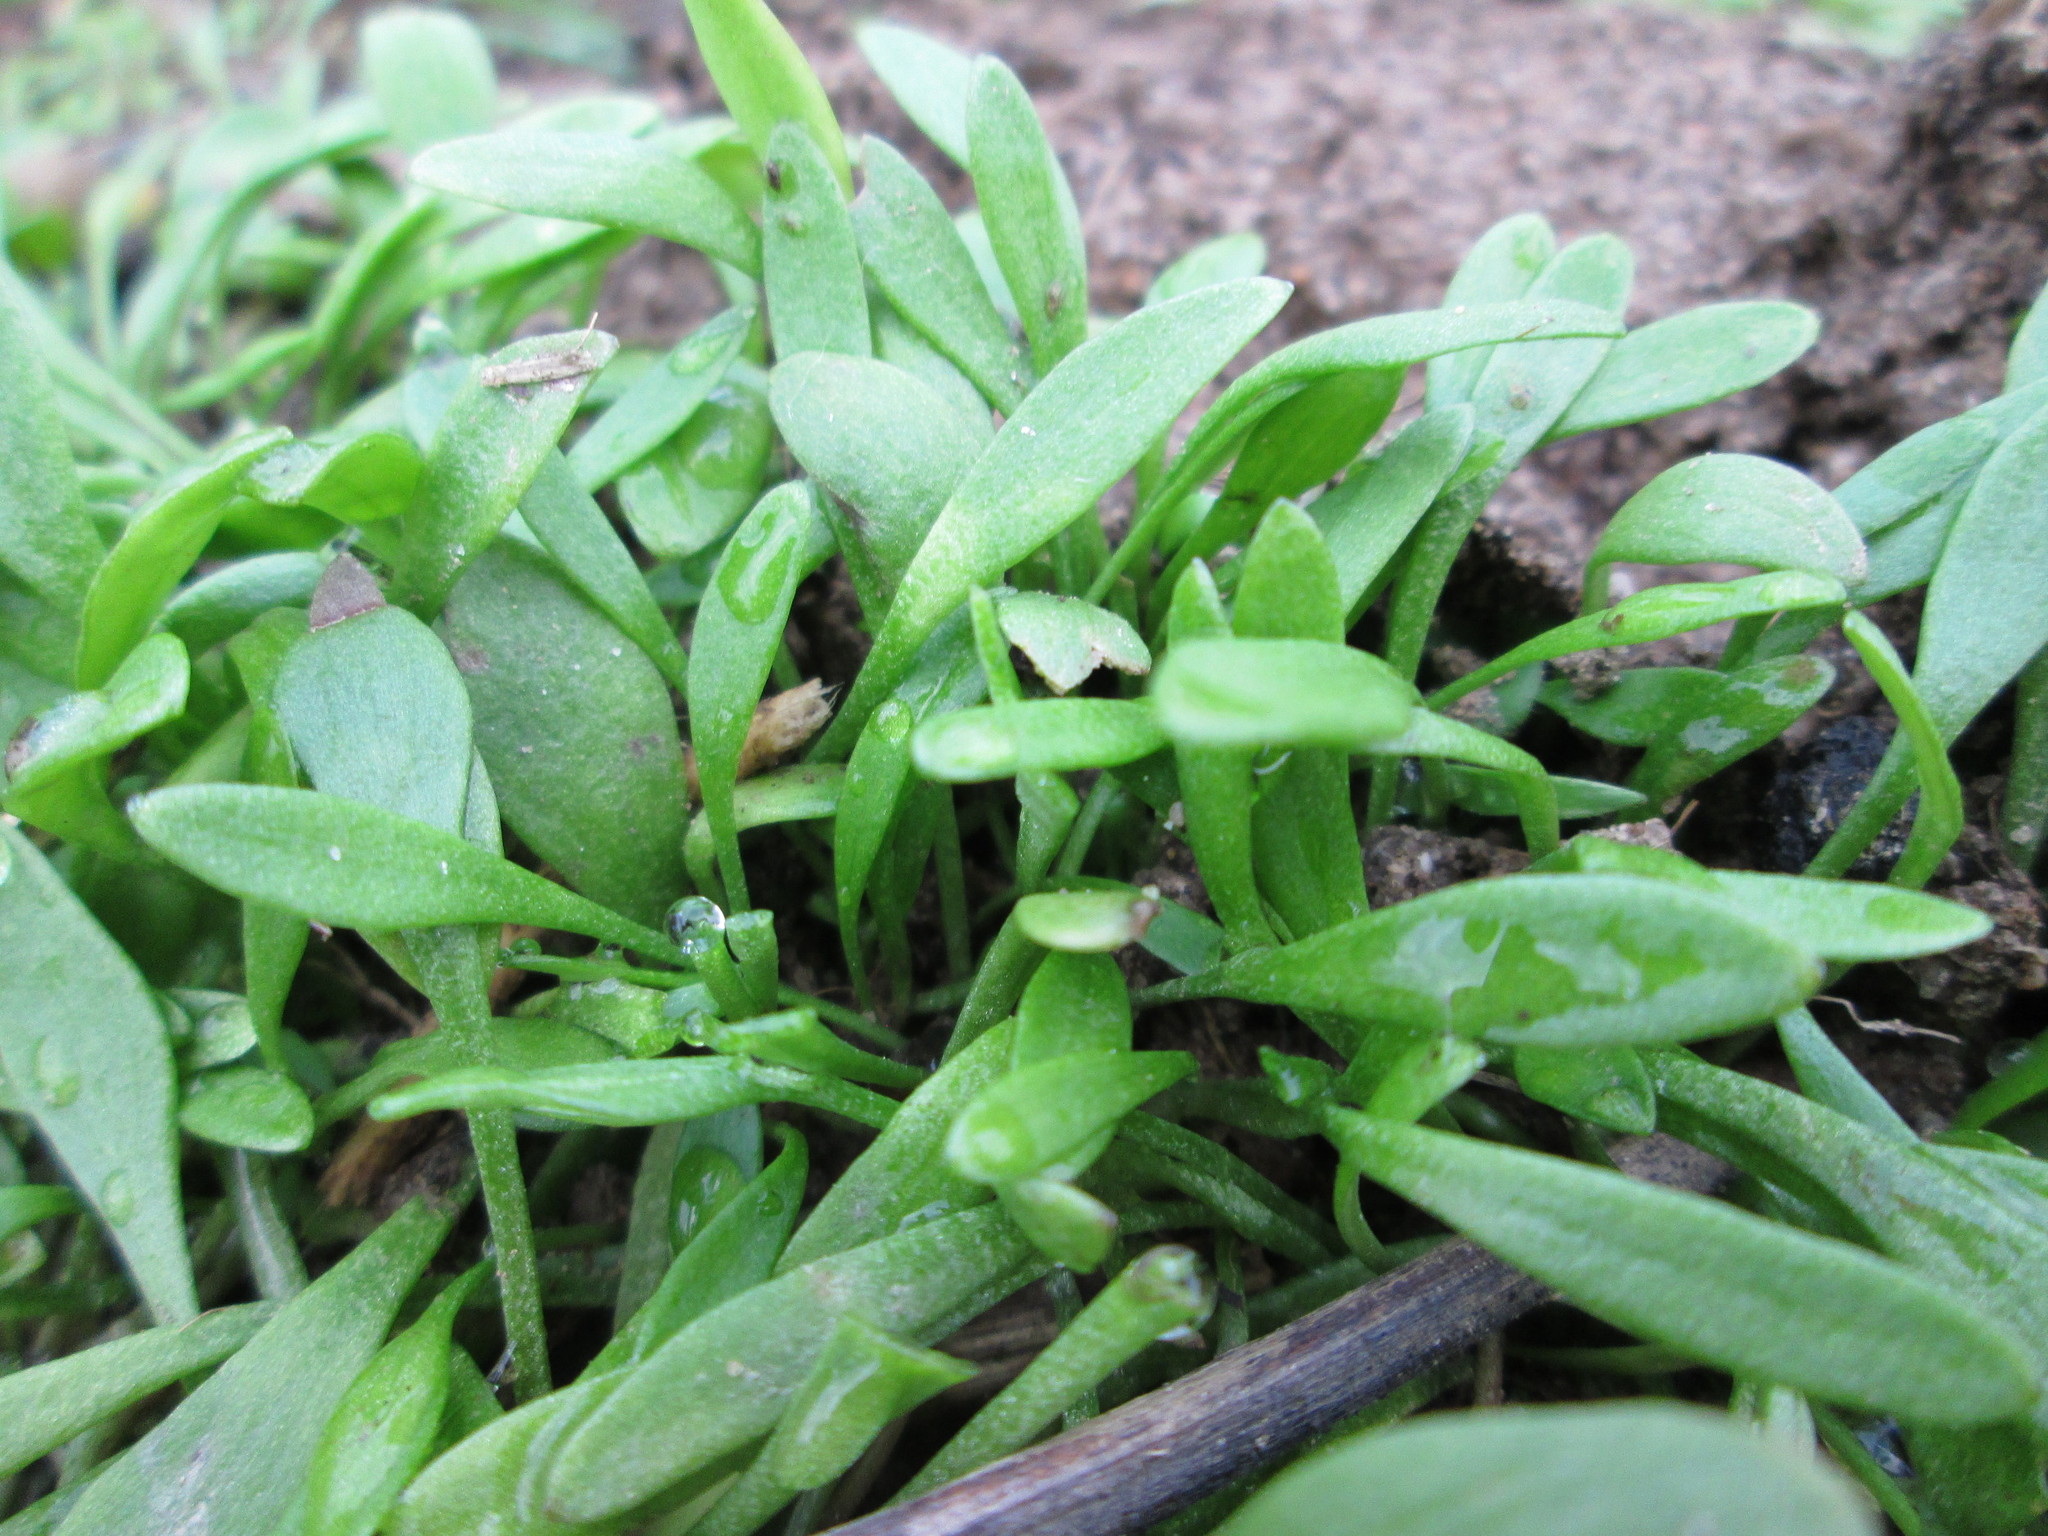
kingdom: Plantae
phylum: Tracheophyta
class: Magnoliopsida
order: Caryophyllales
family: Montiaceae
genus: Claytonia
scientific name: Claytonia perfoliata
